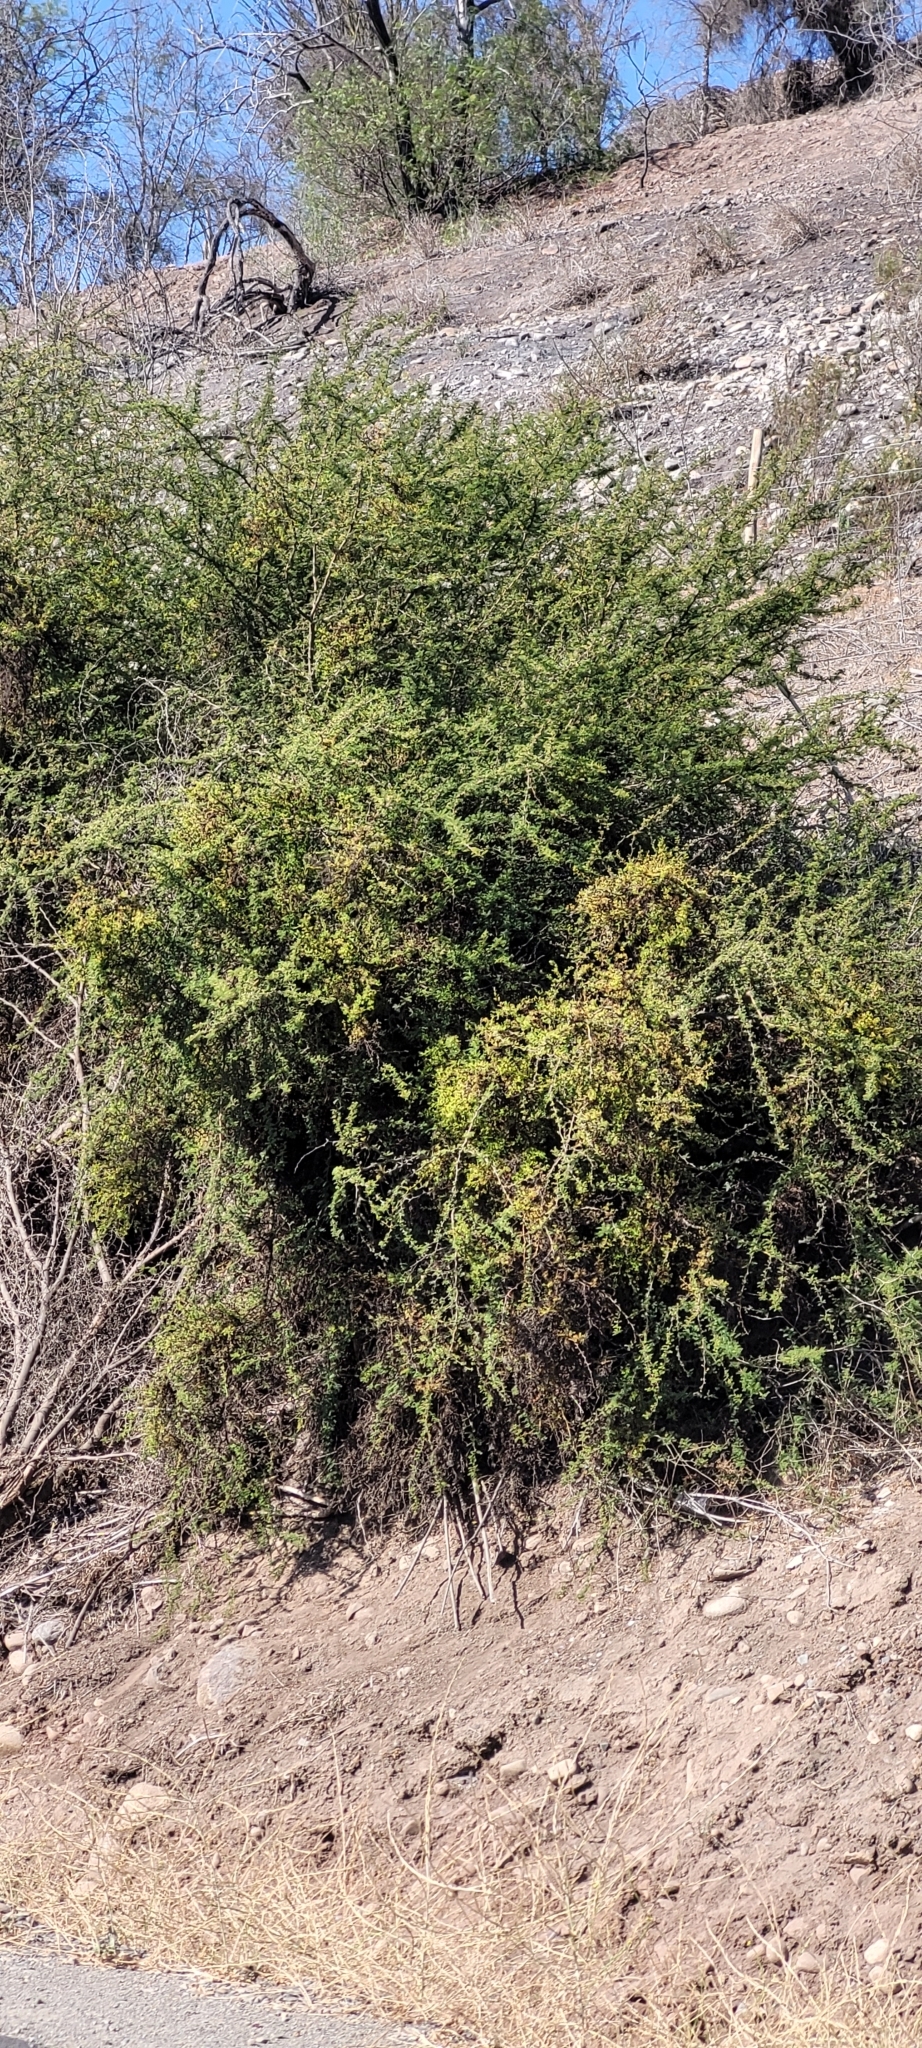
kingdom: Plantae
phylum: Tracheophyta
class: Magnoliopsida
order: Fabales
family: Fabaceae
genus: Vachellia
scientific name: Vachellia caven
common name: Roman cassie
